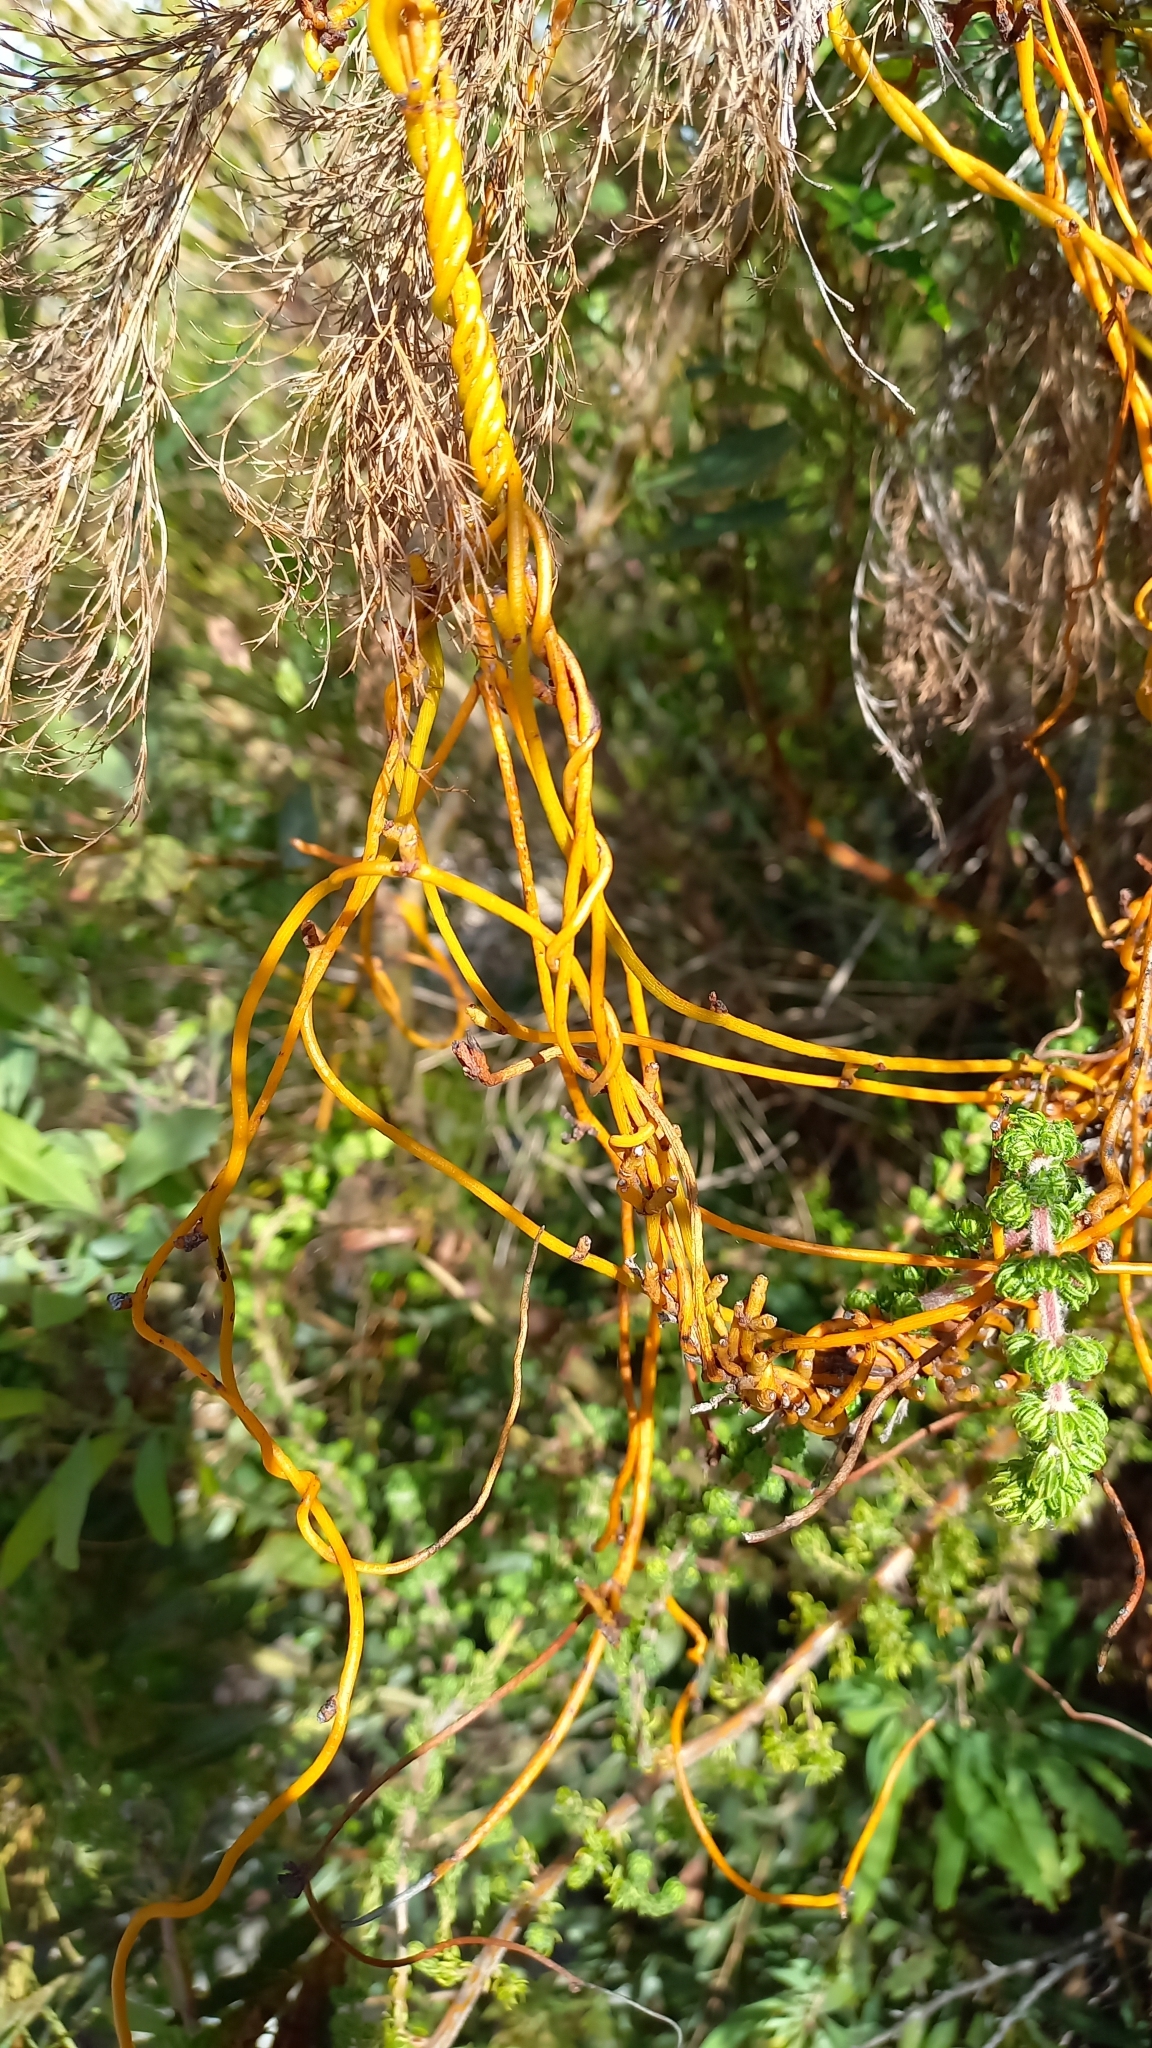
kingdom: Plantae
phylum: Tracheophyta
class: Magnoliopsida
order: Laurales
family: Lauraceae
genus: Cassytha
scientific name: Cassytha ciliolata
